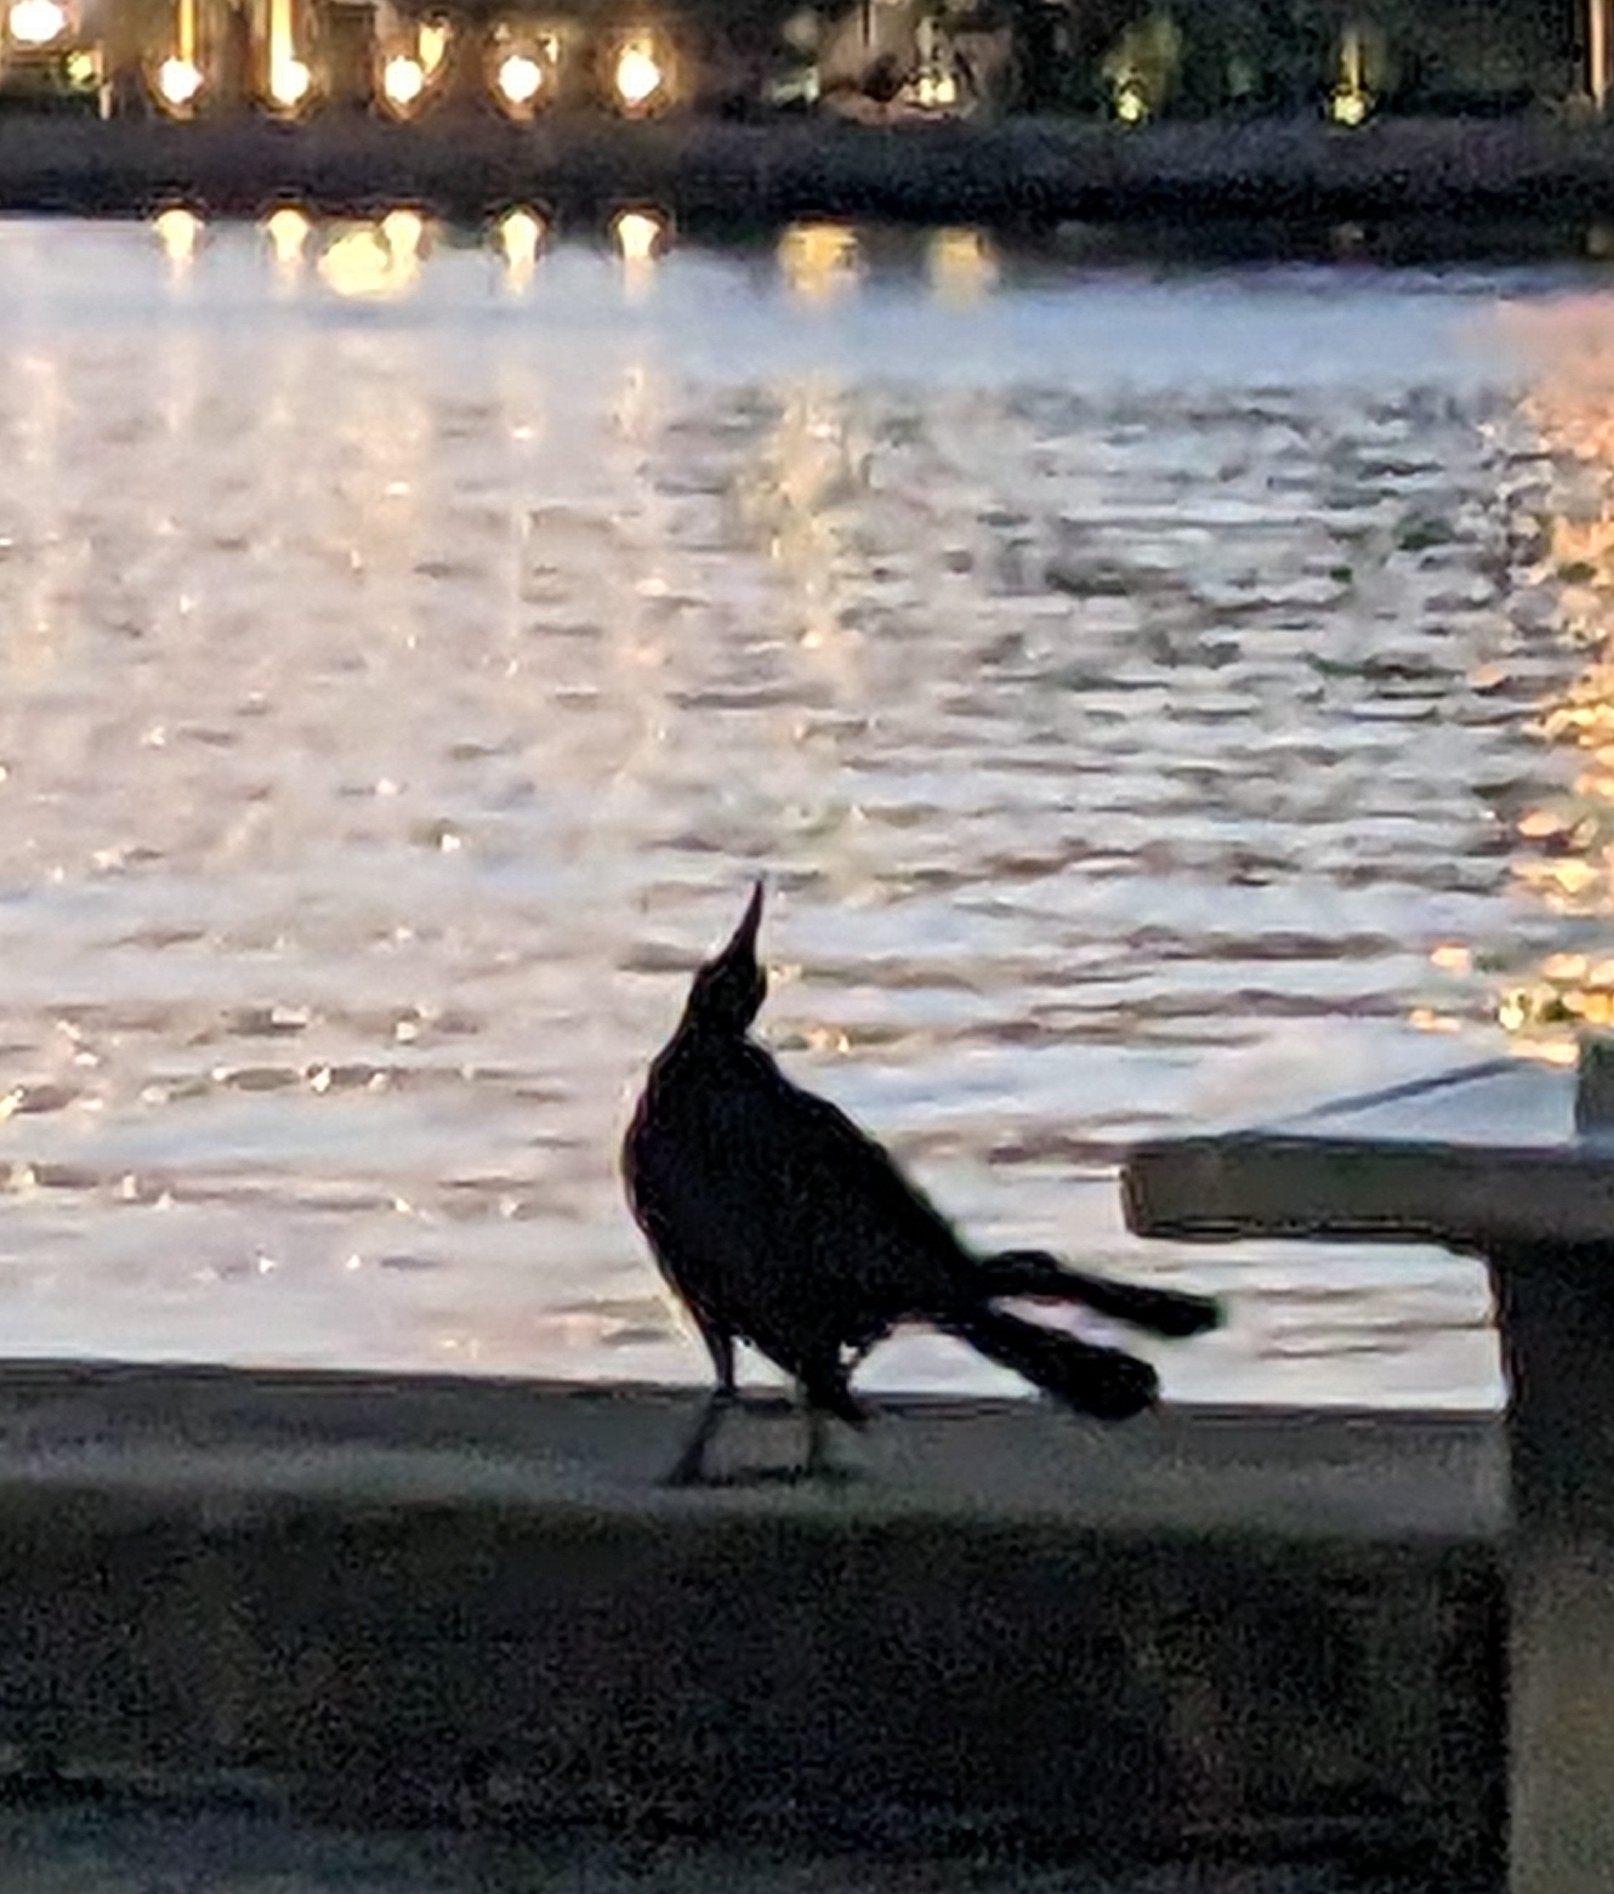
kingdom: Animalia
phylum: Chordata
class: Aves
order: Passeriformes
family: Icteridae
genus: Quiscalus
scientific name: Quiscalus major
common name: Boat-tailed grackle
